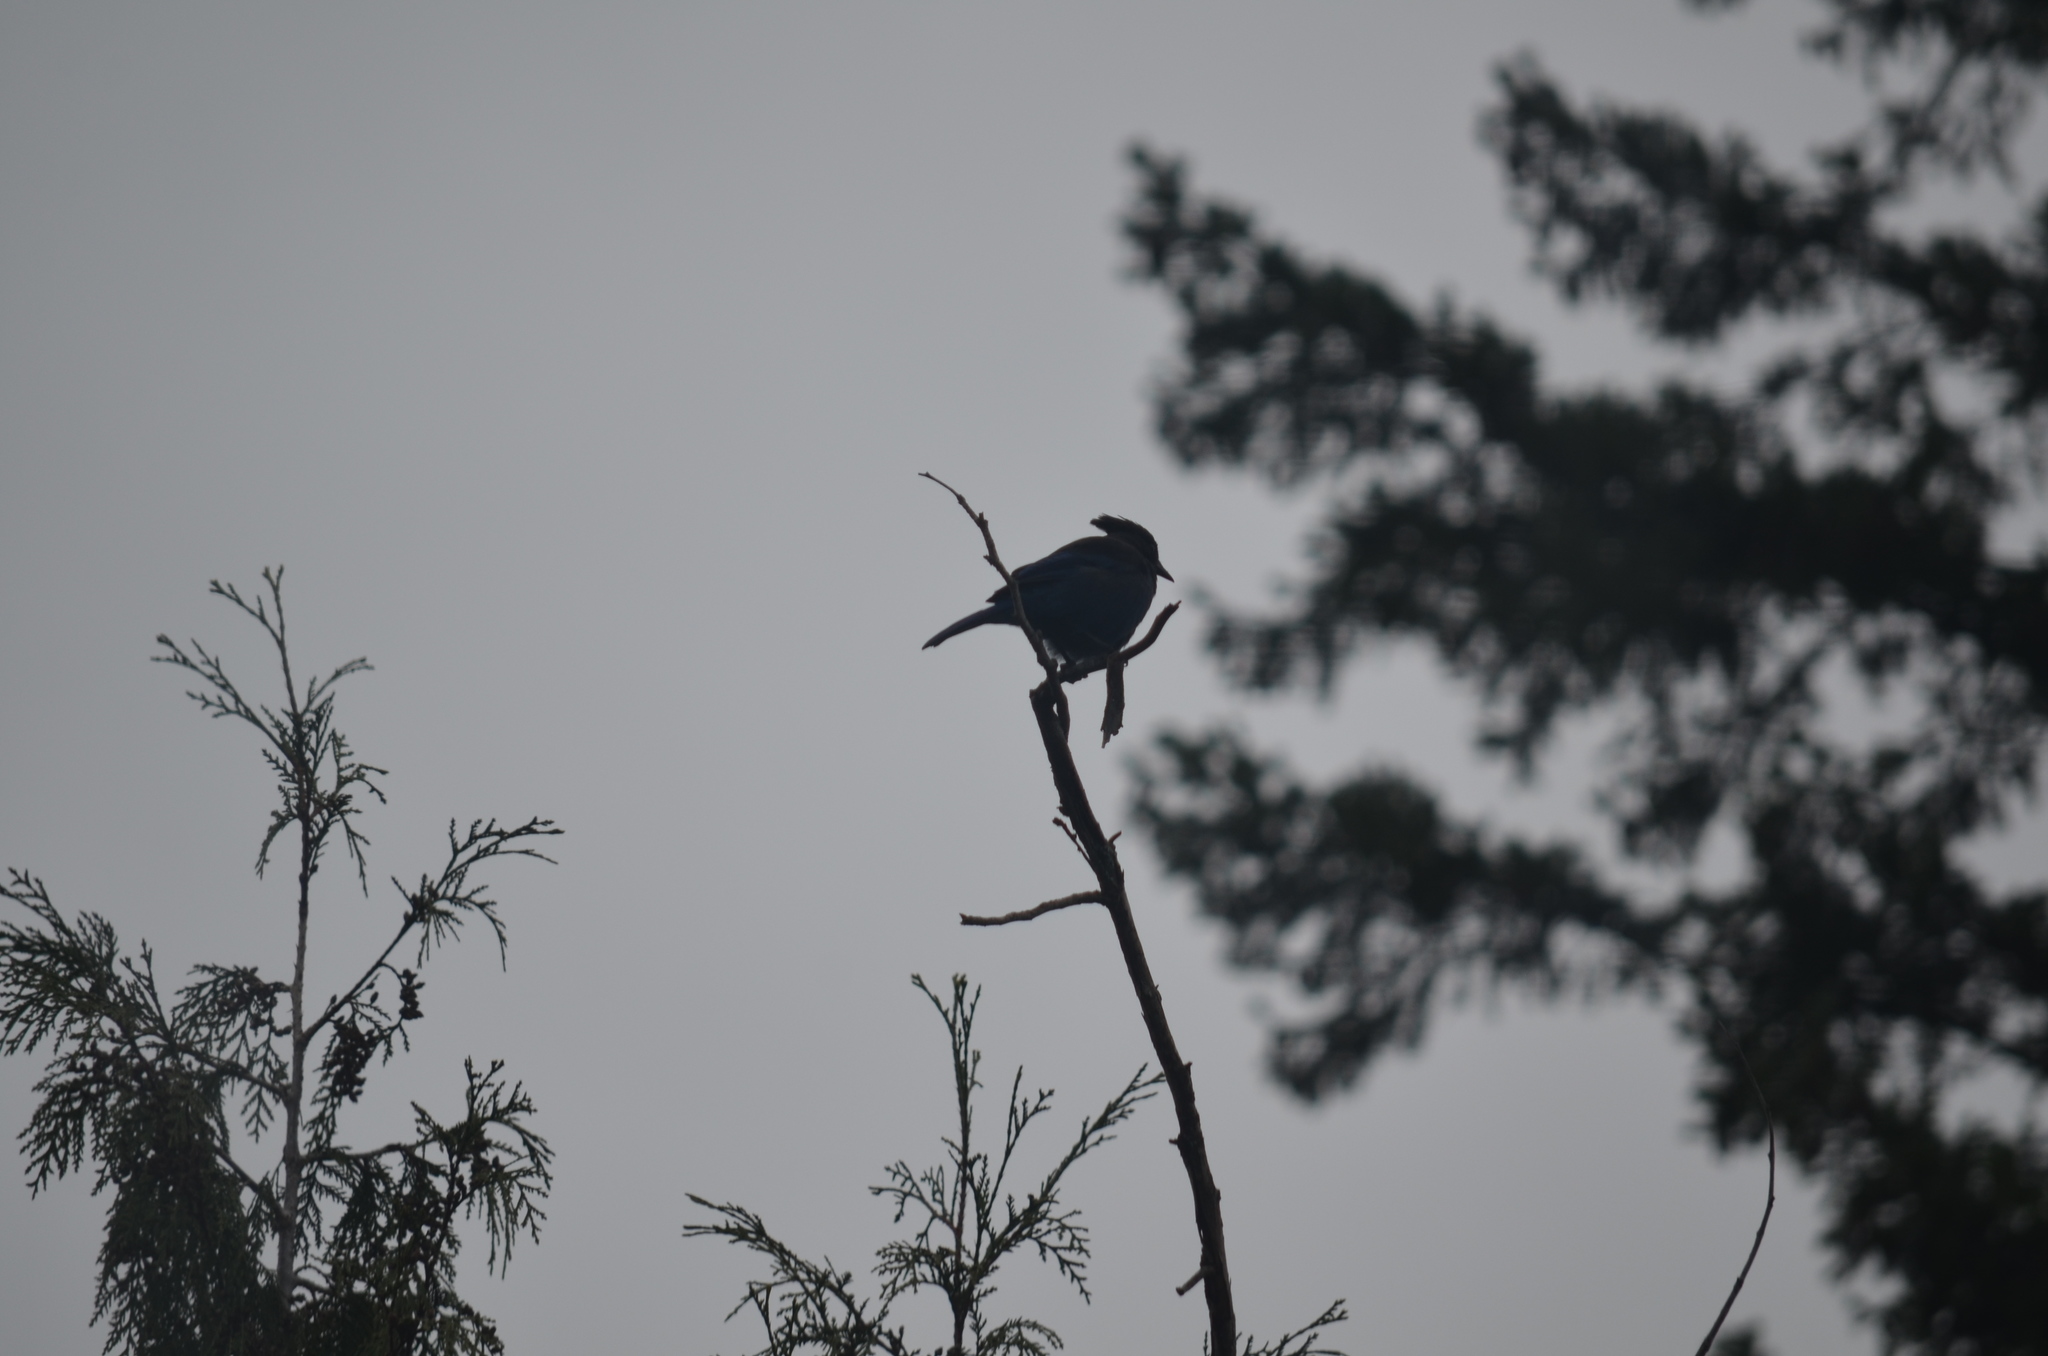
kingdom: Animalia
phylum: Chordata
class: Aves
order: Passeriformes
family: Corvidae
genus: Cyanocitta
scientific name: Cyanocitta stelleri
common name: Steller's jay
